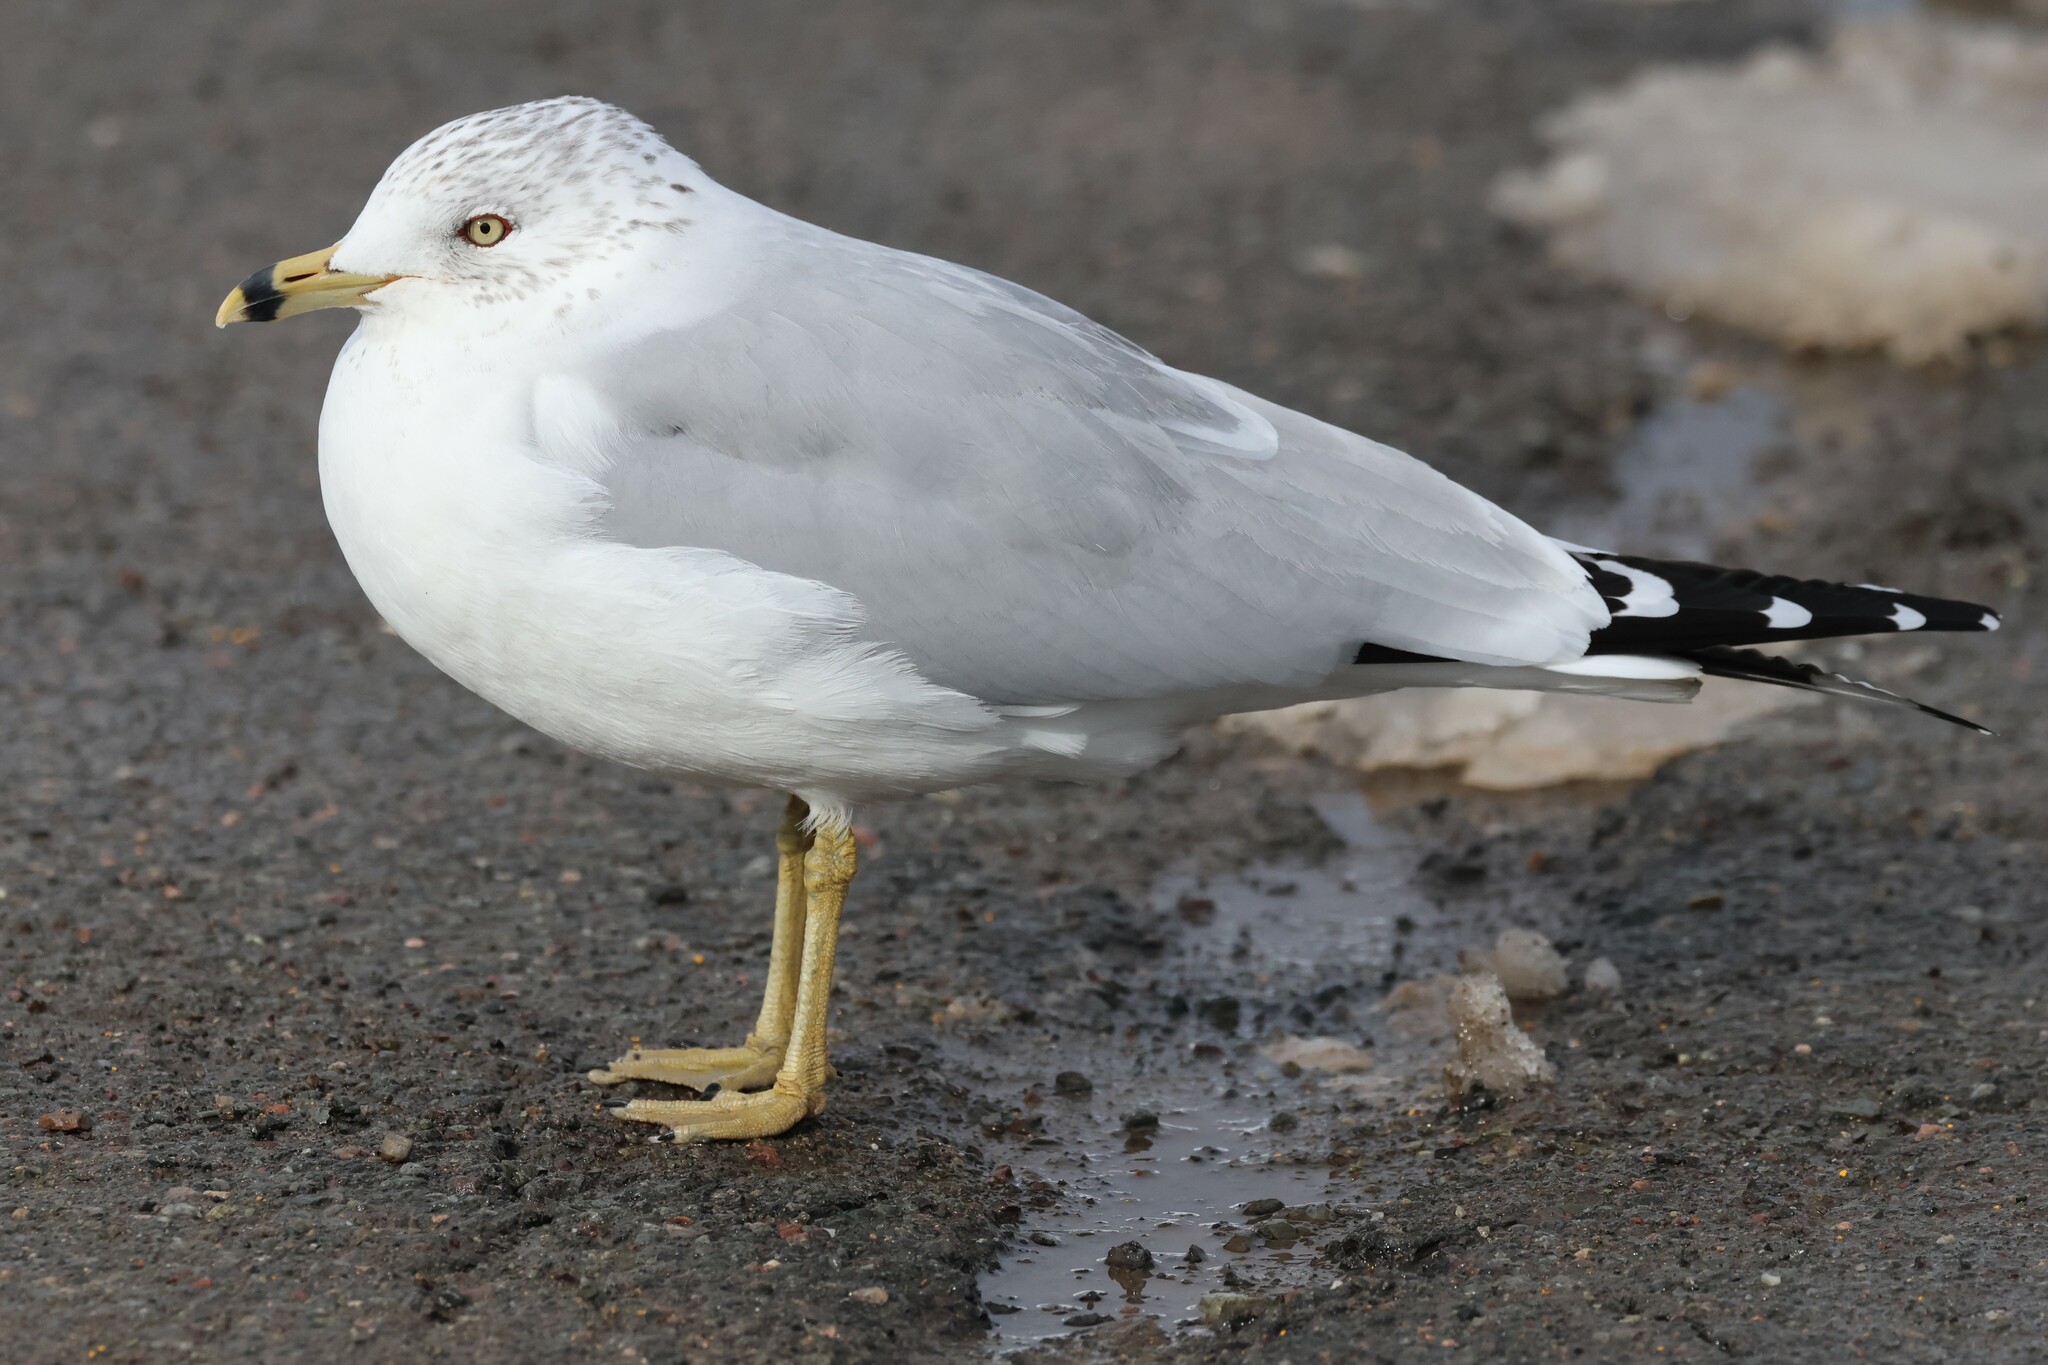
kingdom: Animalia
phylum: Chordata
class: Aves
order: Charadriiformes
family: Laridae
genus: Larus
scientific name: Larus delawarensis
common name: Ring-billed gull
